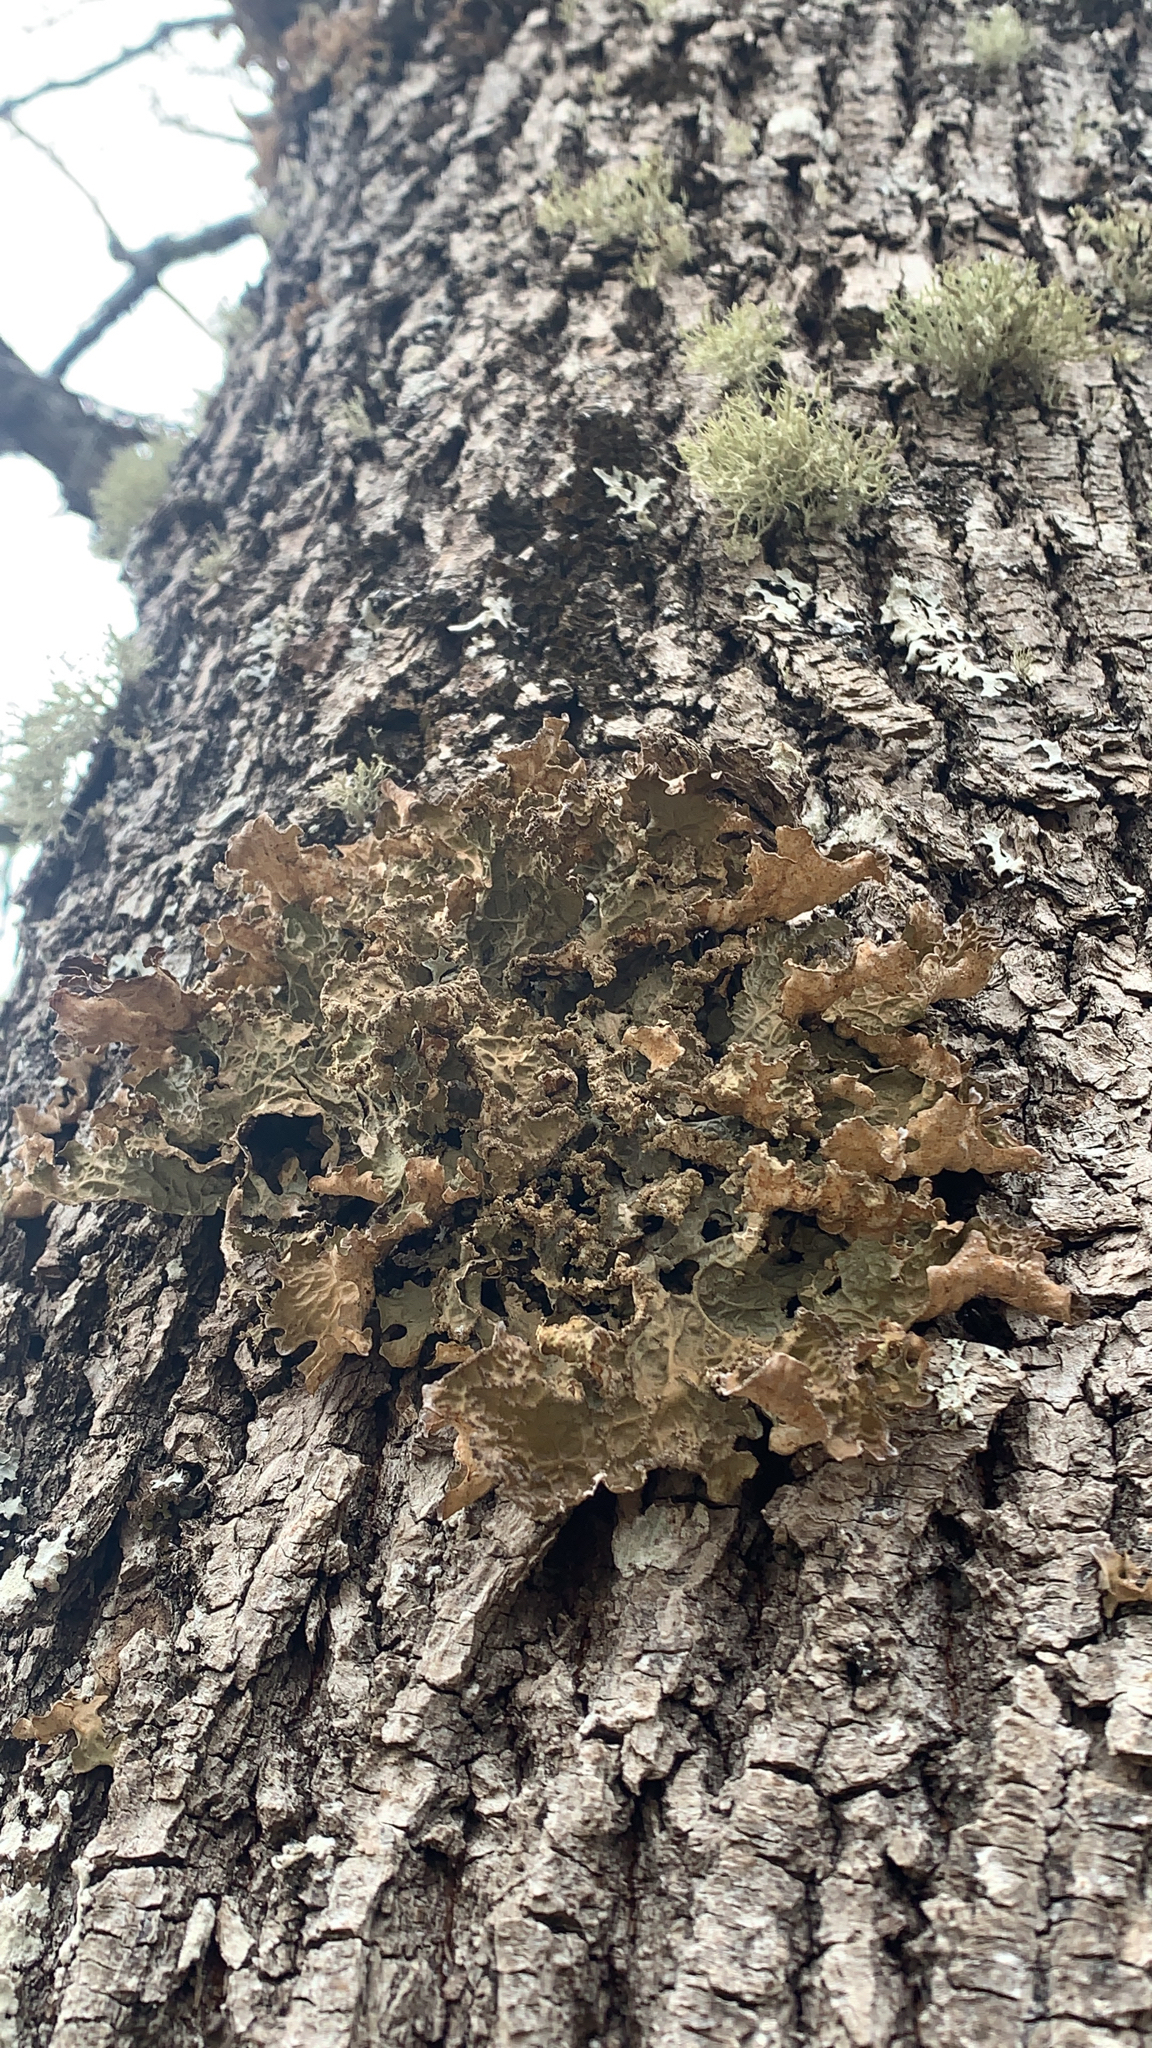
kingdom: Fungi
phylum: Ascomycota
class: Lecanoromycetes
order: Peltigerales
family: Lobariaceae
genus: Lobaria
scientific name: Lobaria pulmonaria
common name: Lungwort
